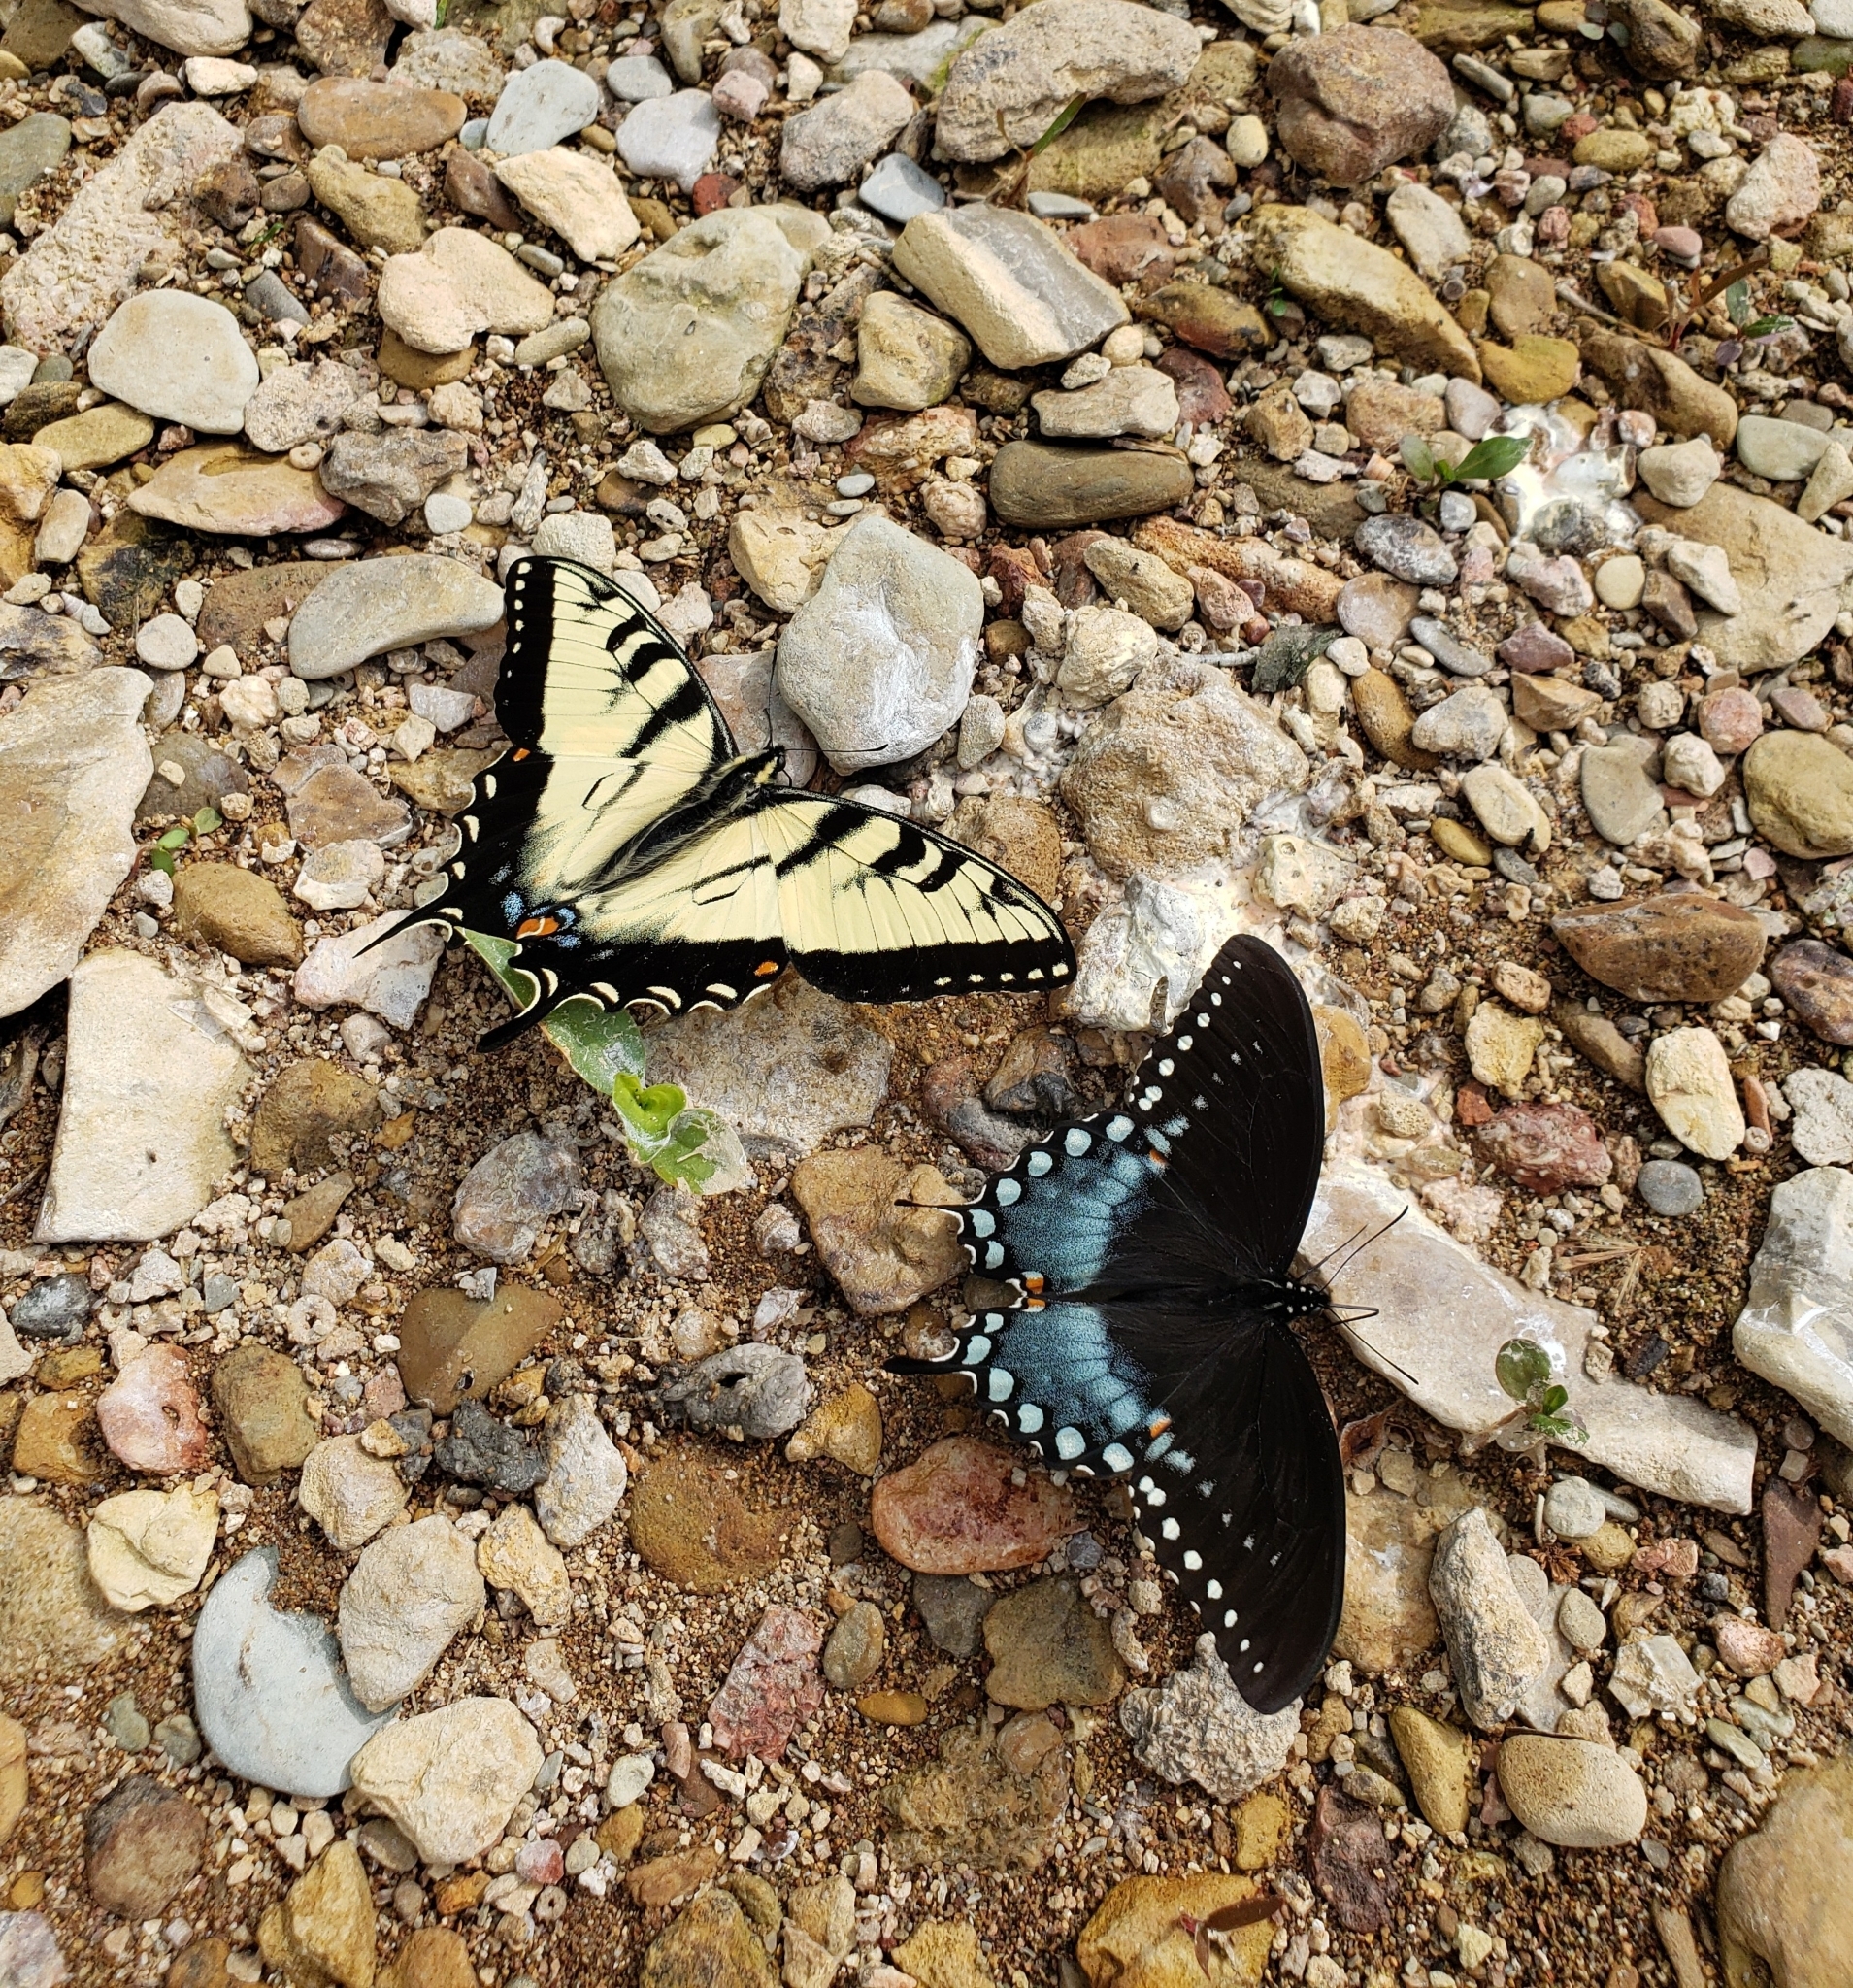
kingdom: Animalia
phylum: Arthropoda
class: Insecta
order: Lepidoptera
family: Papilionidae
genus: Papilio
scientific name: Papilio glaucus
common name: Tiger swallowtail
